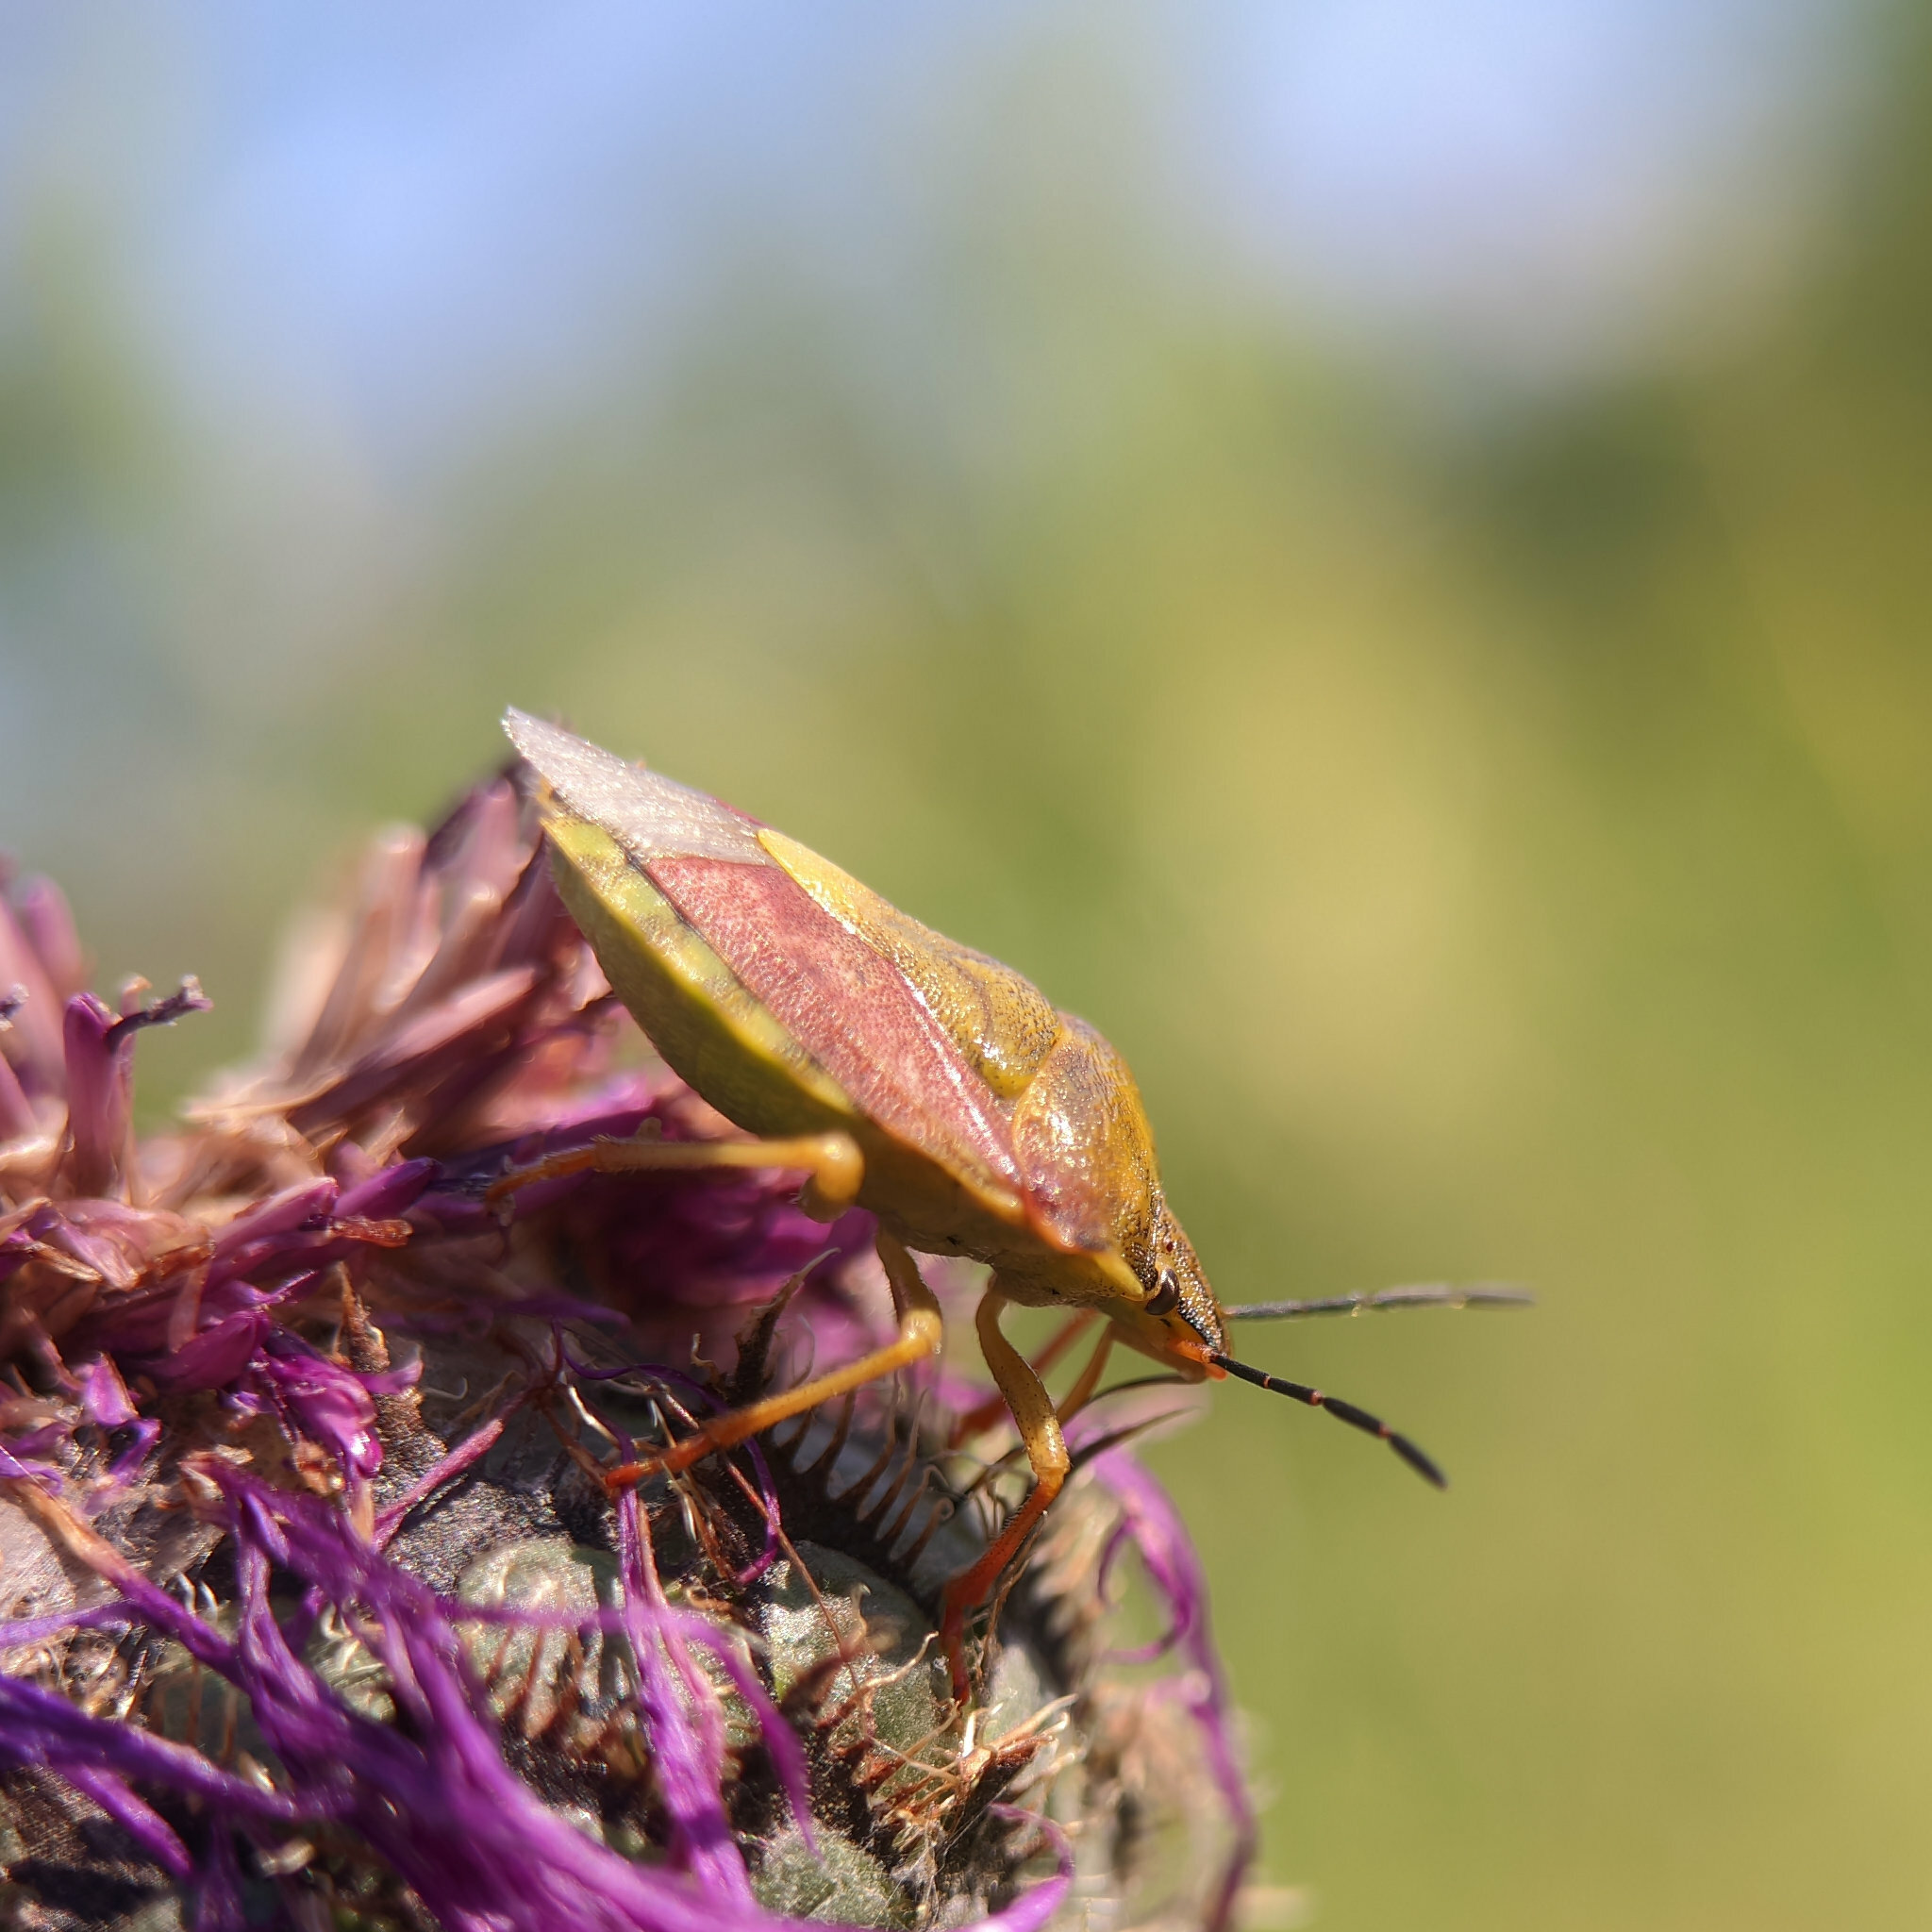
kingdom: Animalia
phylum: Arthropoda
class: Insecta
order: Hemiptera
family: Pentatomidae
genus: Carpocoris
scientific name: Carpocoris purpureipennis
